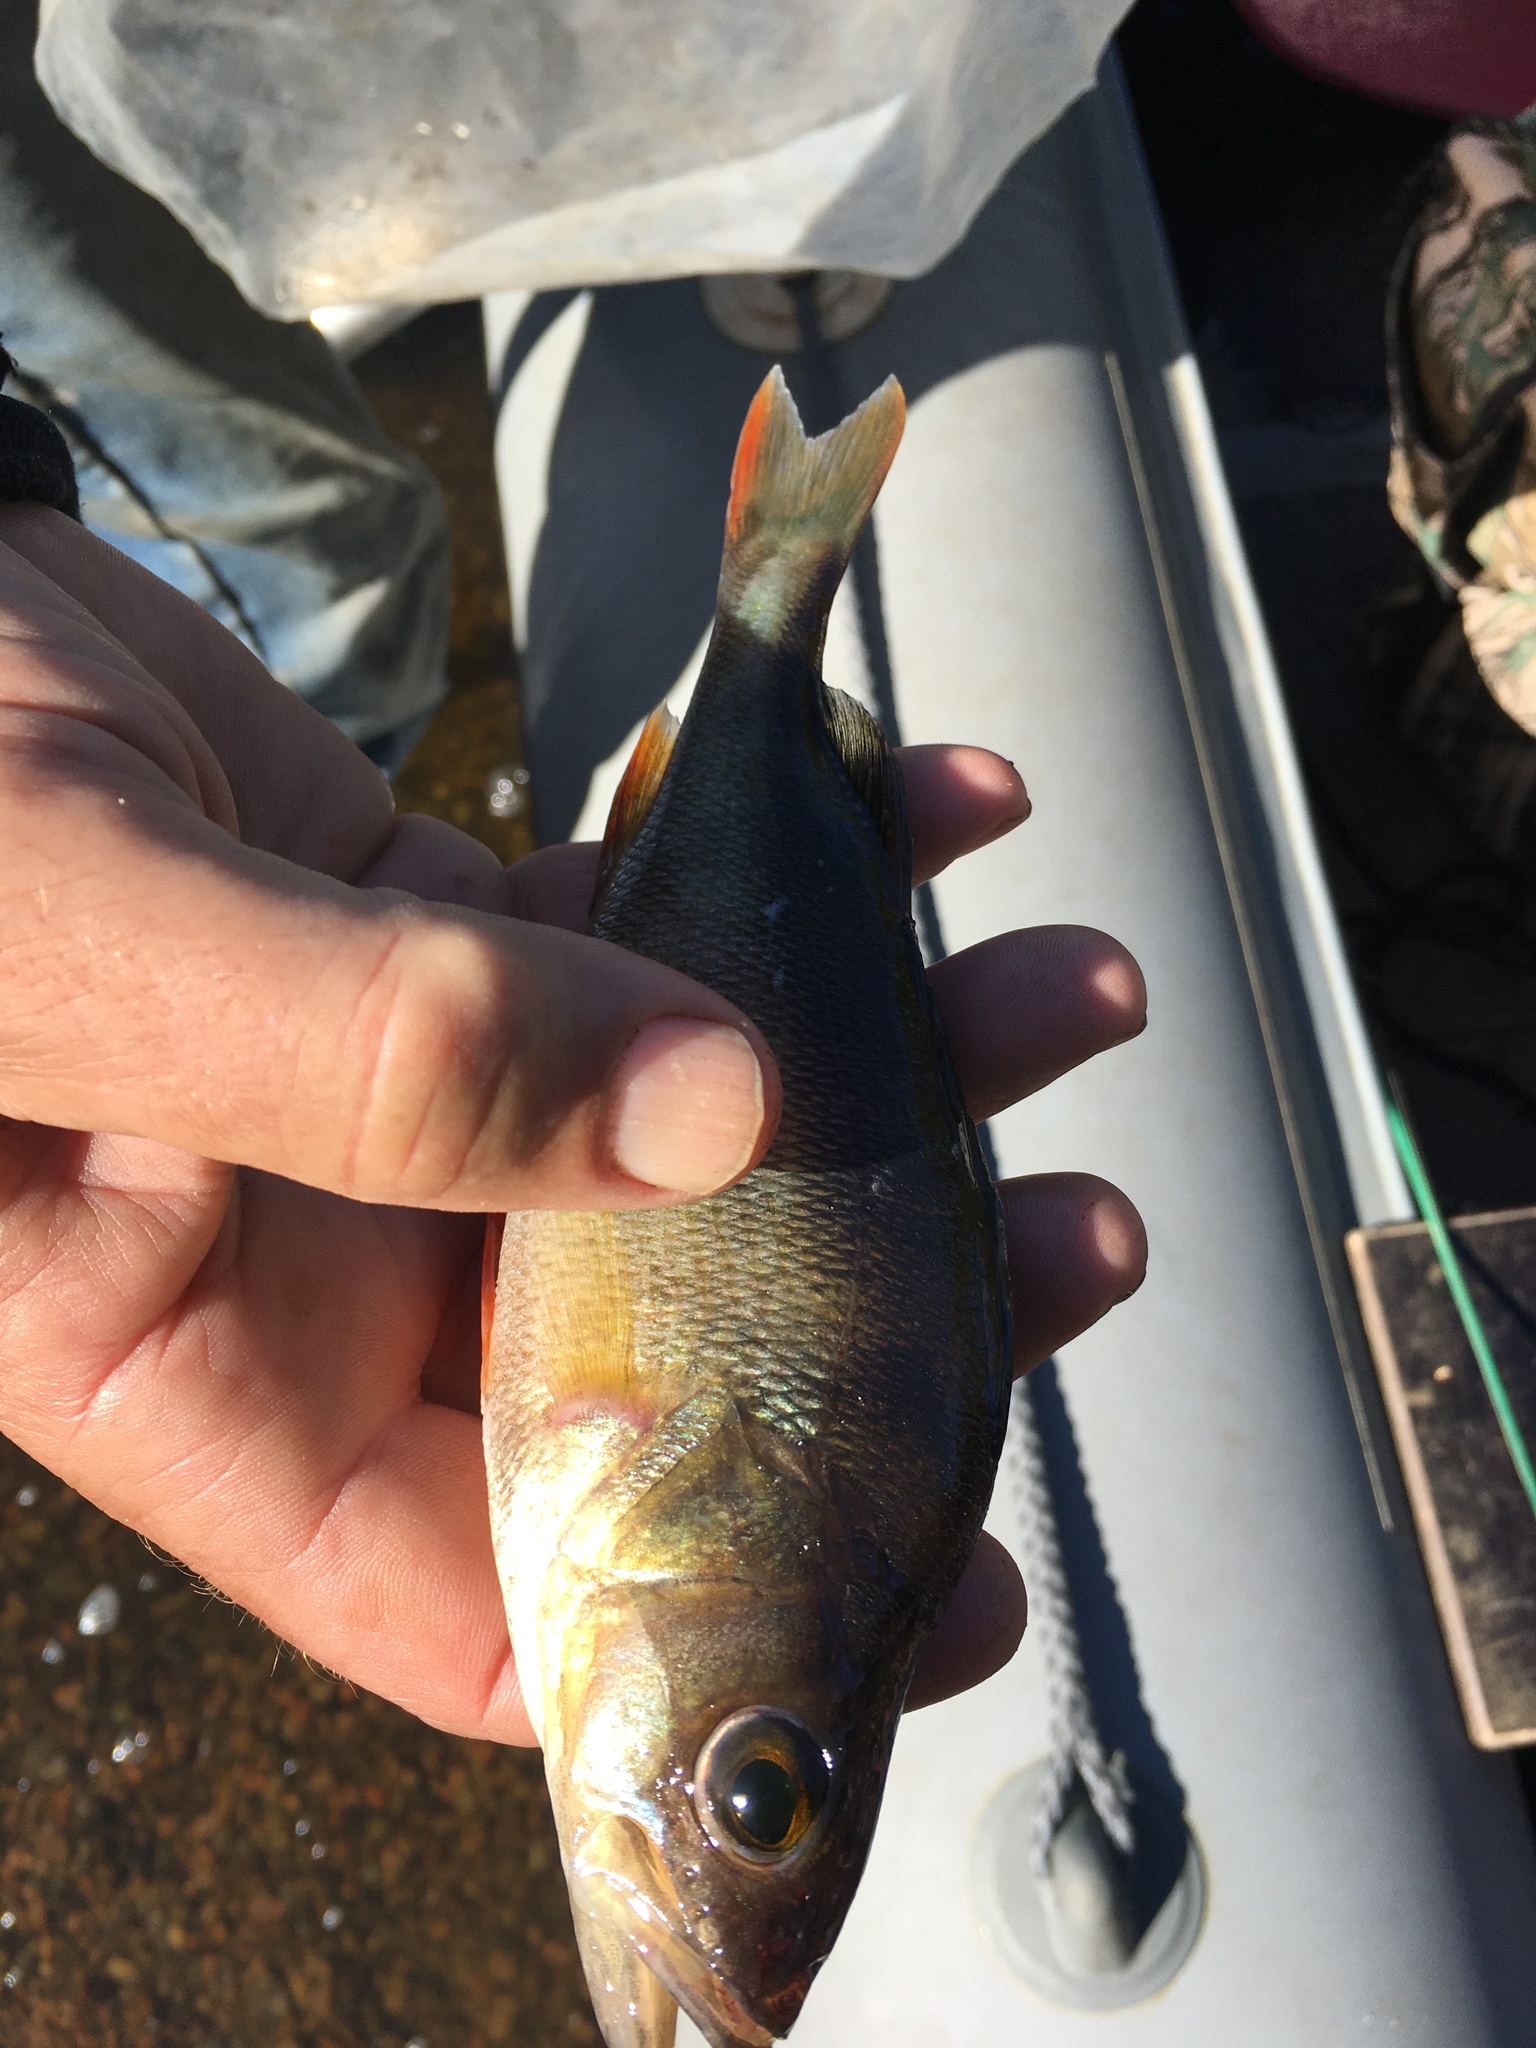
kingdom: Animalia
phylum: Chordata
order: Perciformes
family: Percidae
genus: Perca
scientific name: Perca fluviatilis
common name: Perch
